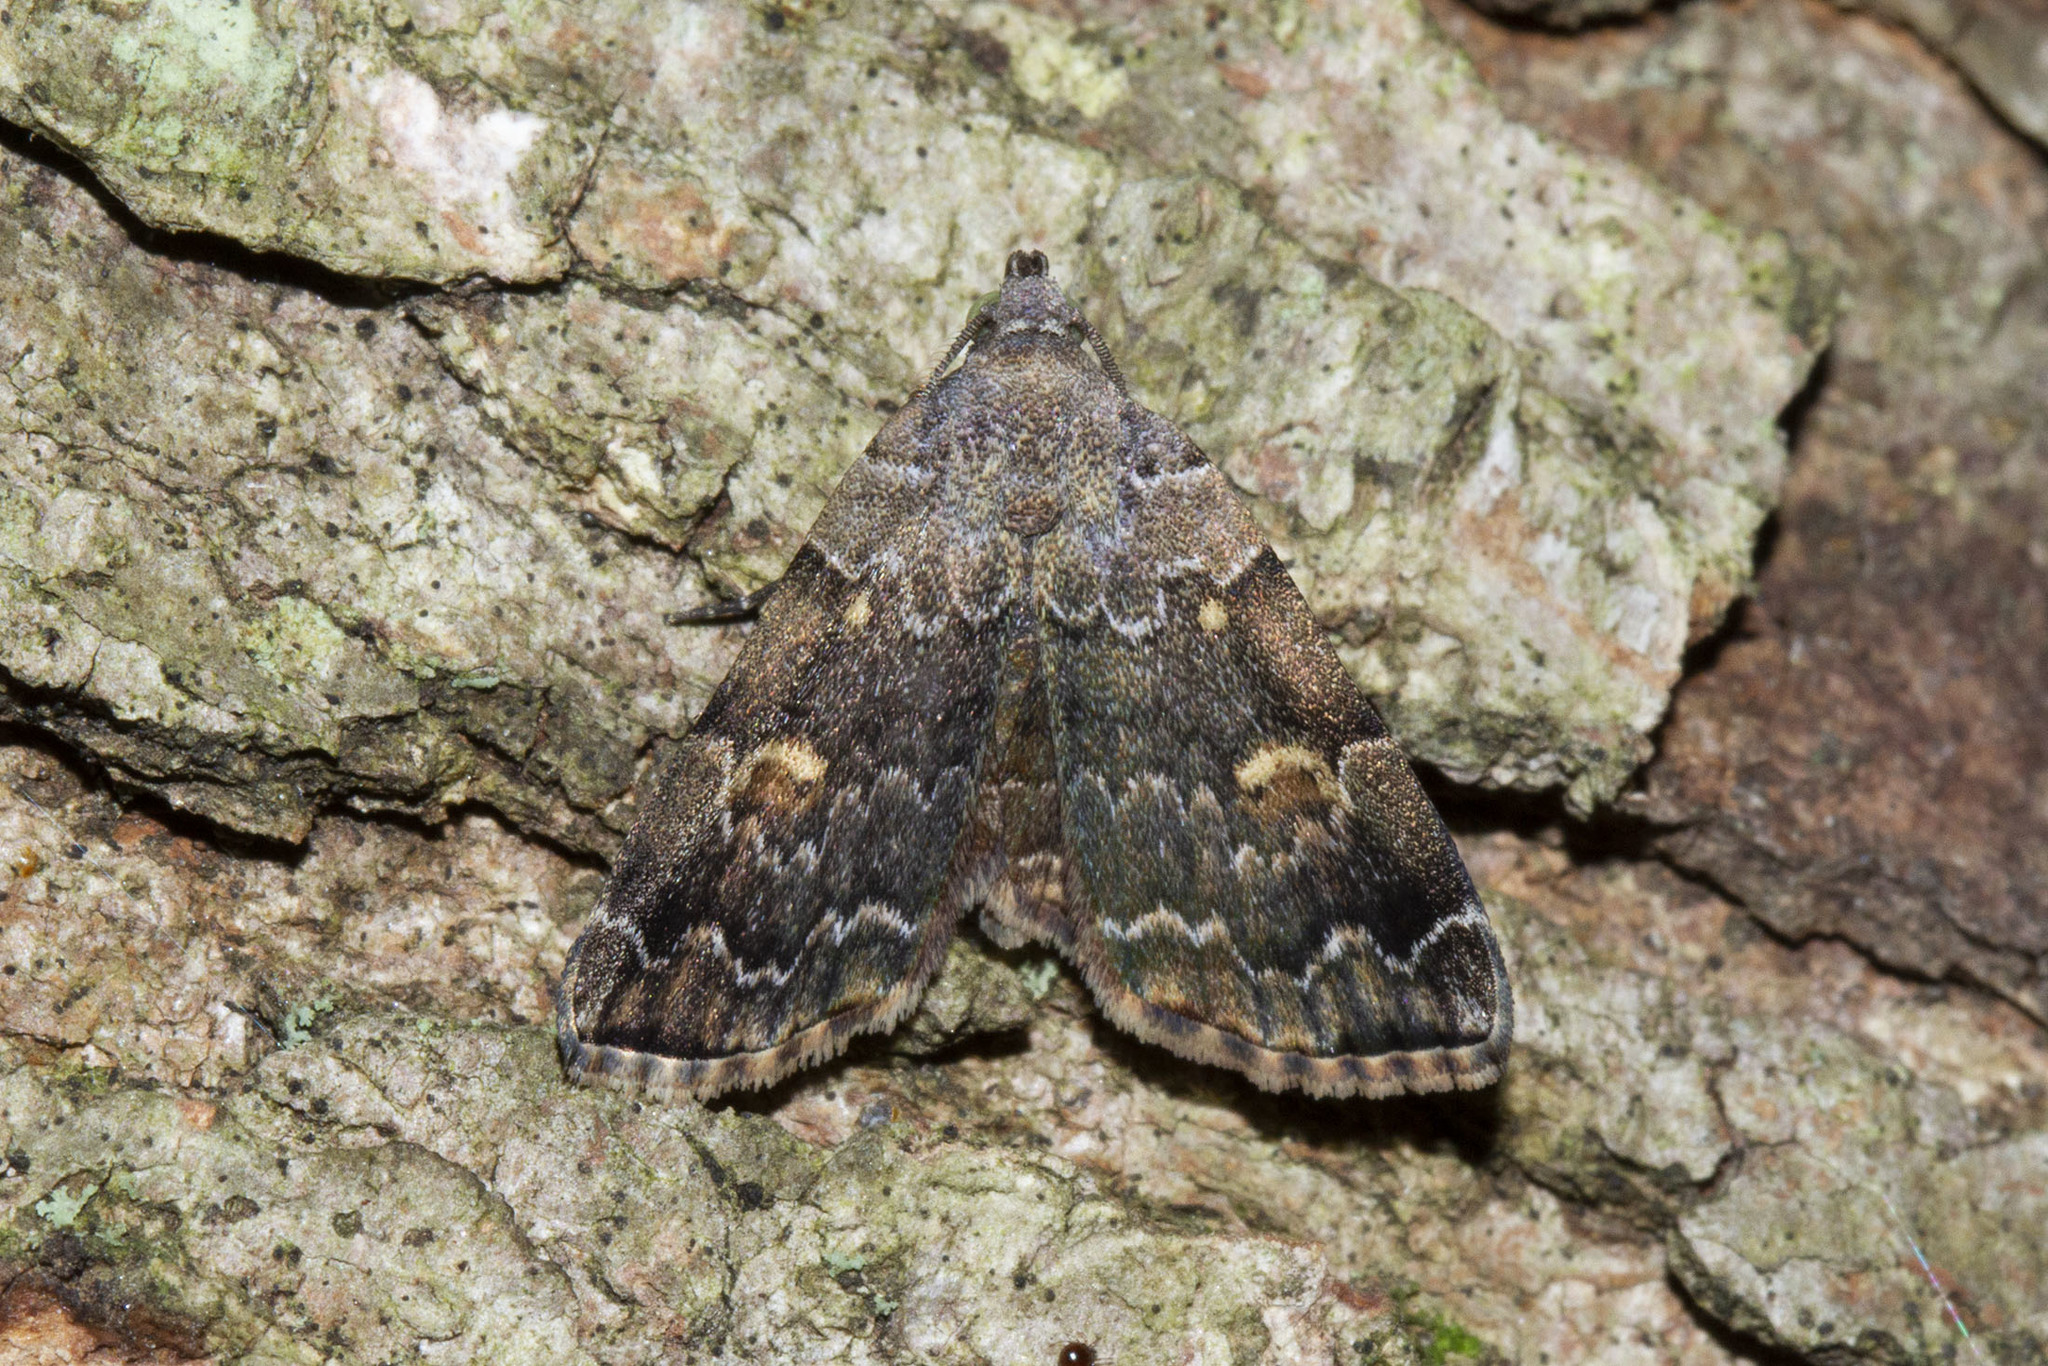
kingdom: Animalia
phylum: Arthropoda
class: Insecta
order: Lepidoptera
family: Erebidae
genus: Idia
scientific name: Idia americalis
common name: American idia moth
